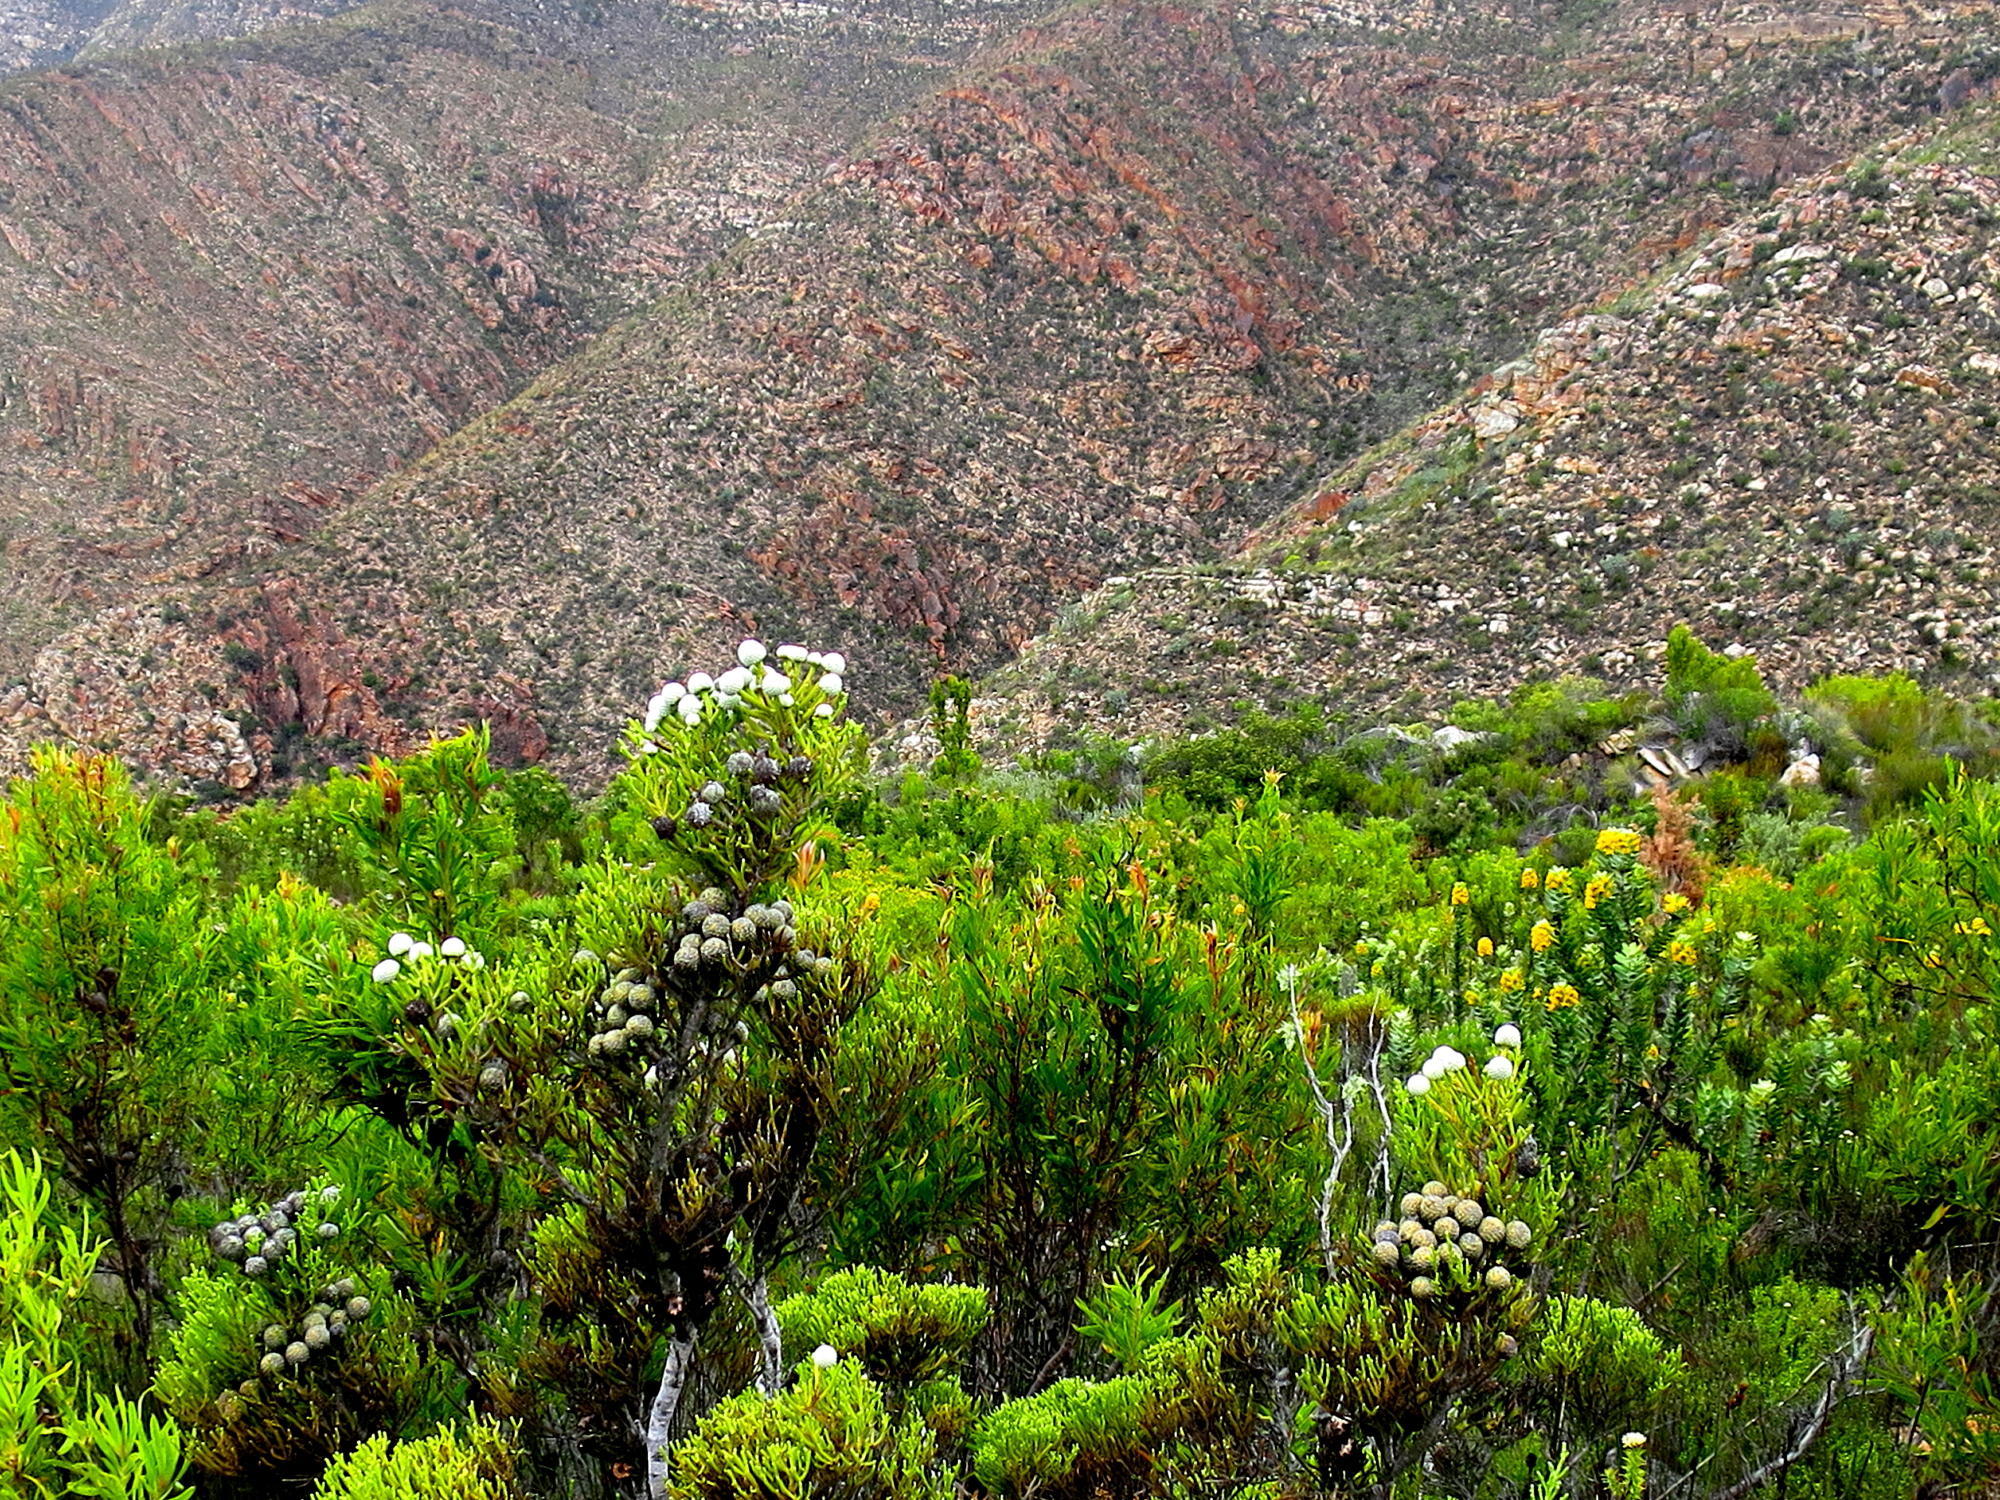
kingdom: Plantae
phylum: Tracheophyta
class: Magnoliopsida
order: Bruniales
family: Bruniaceae
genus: Brunia
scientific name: Brunia noduliflora
